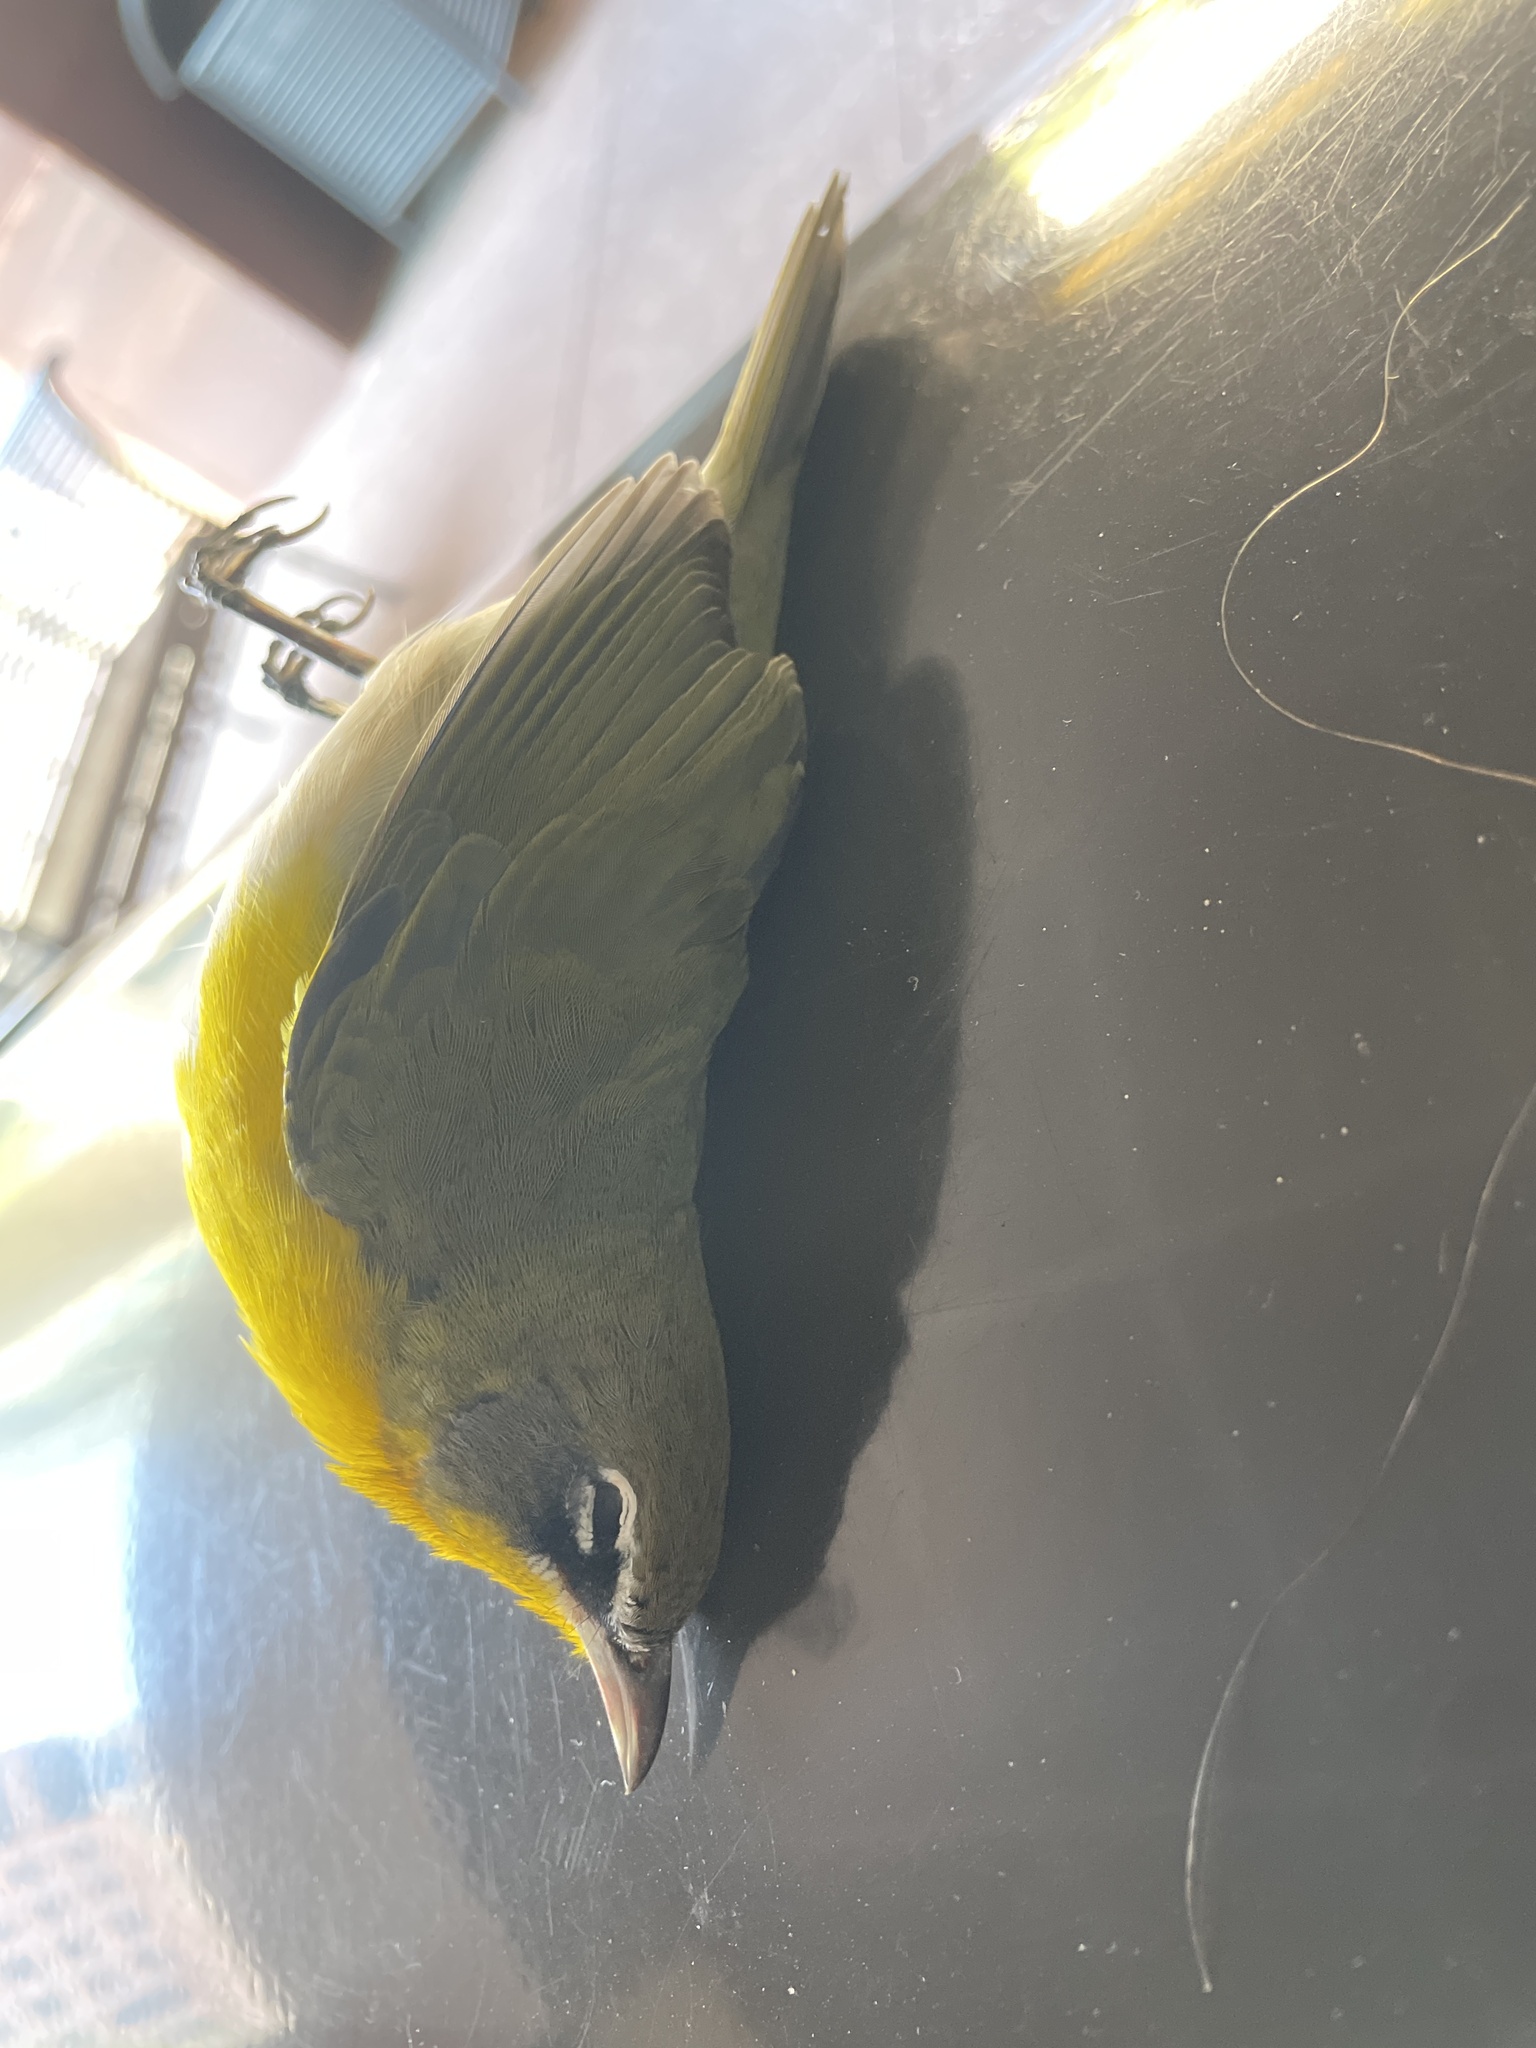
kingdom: Animalia
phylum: Chordata
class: Aves
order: Passeriformes
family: Parulidae
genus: Icteria
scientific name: Icteria virens
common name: Yellow-breasted chat
